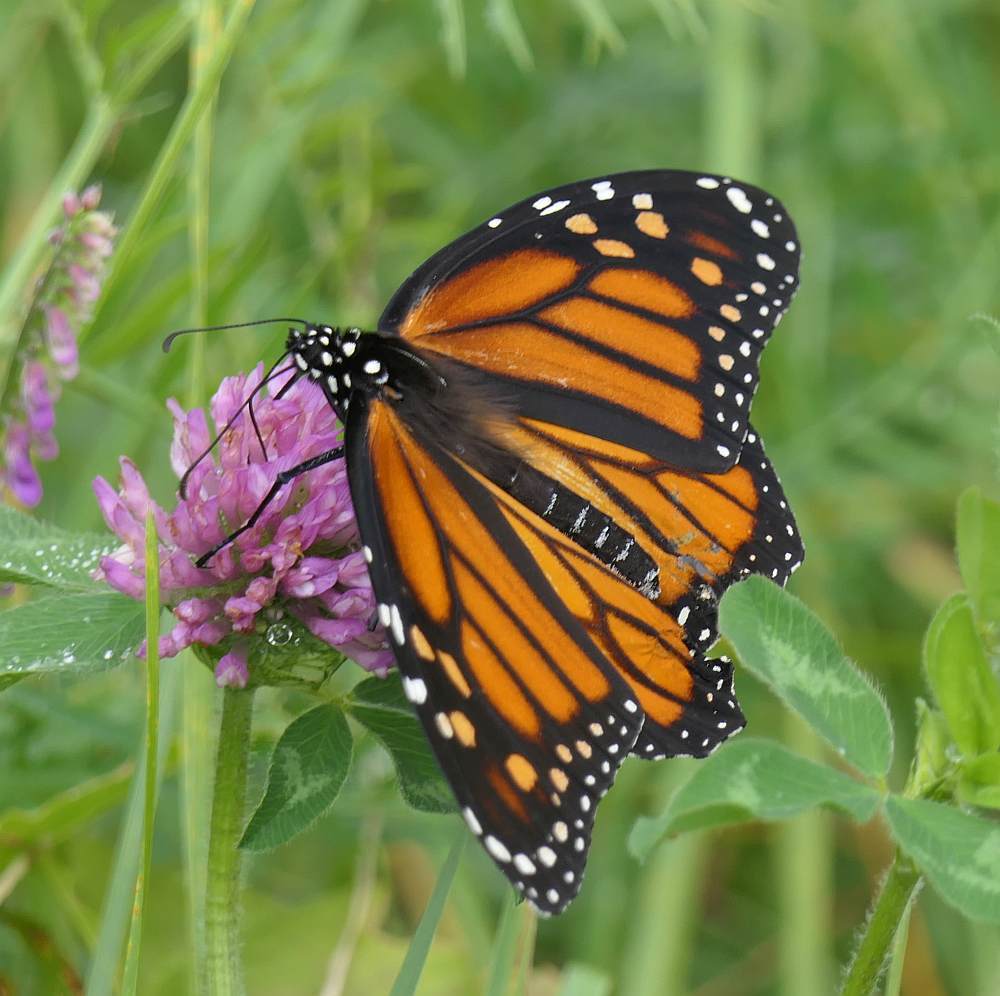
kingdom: Animalia
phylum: Arthropoda
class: Insecta
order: Lepidoptera
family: Nymphalidae
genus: Danaus
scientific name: Danaus plexippus
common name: Monarch
